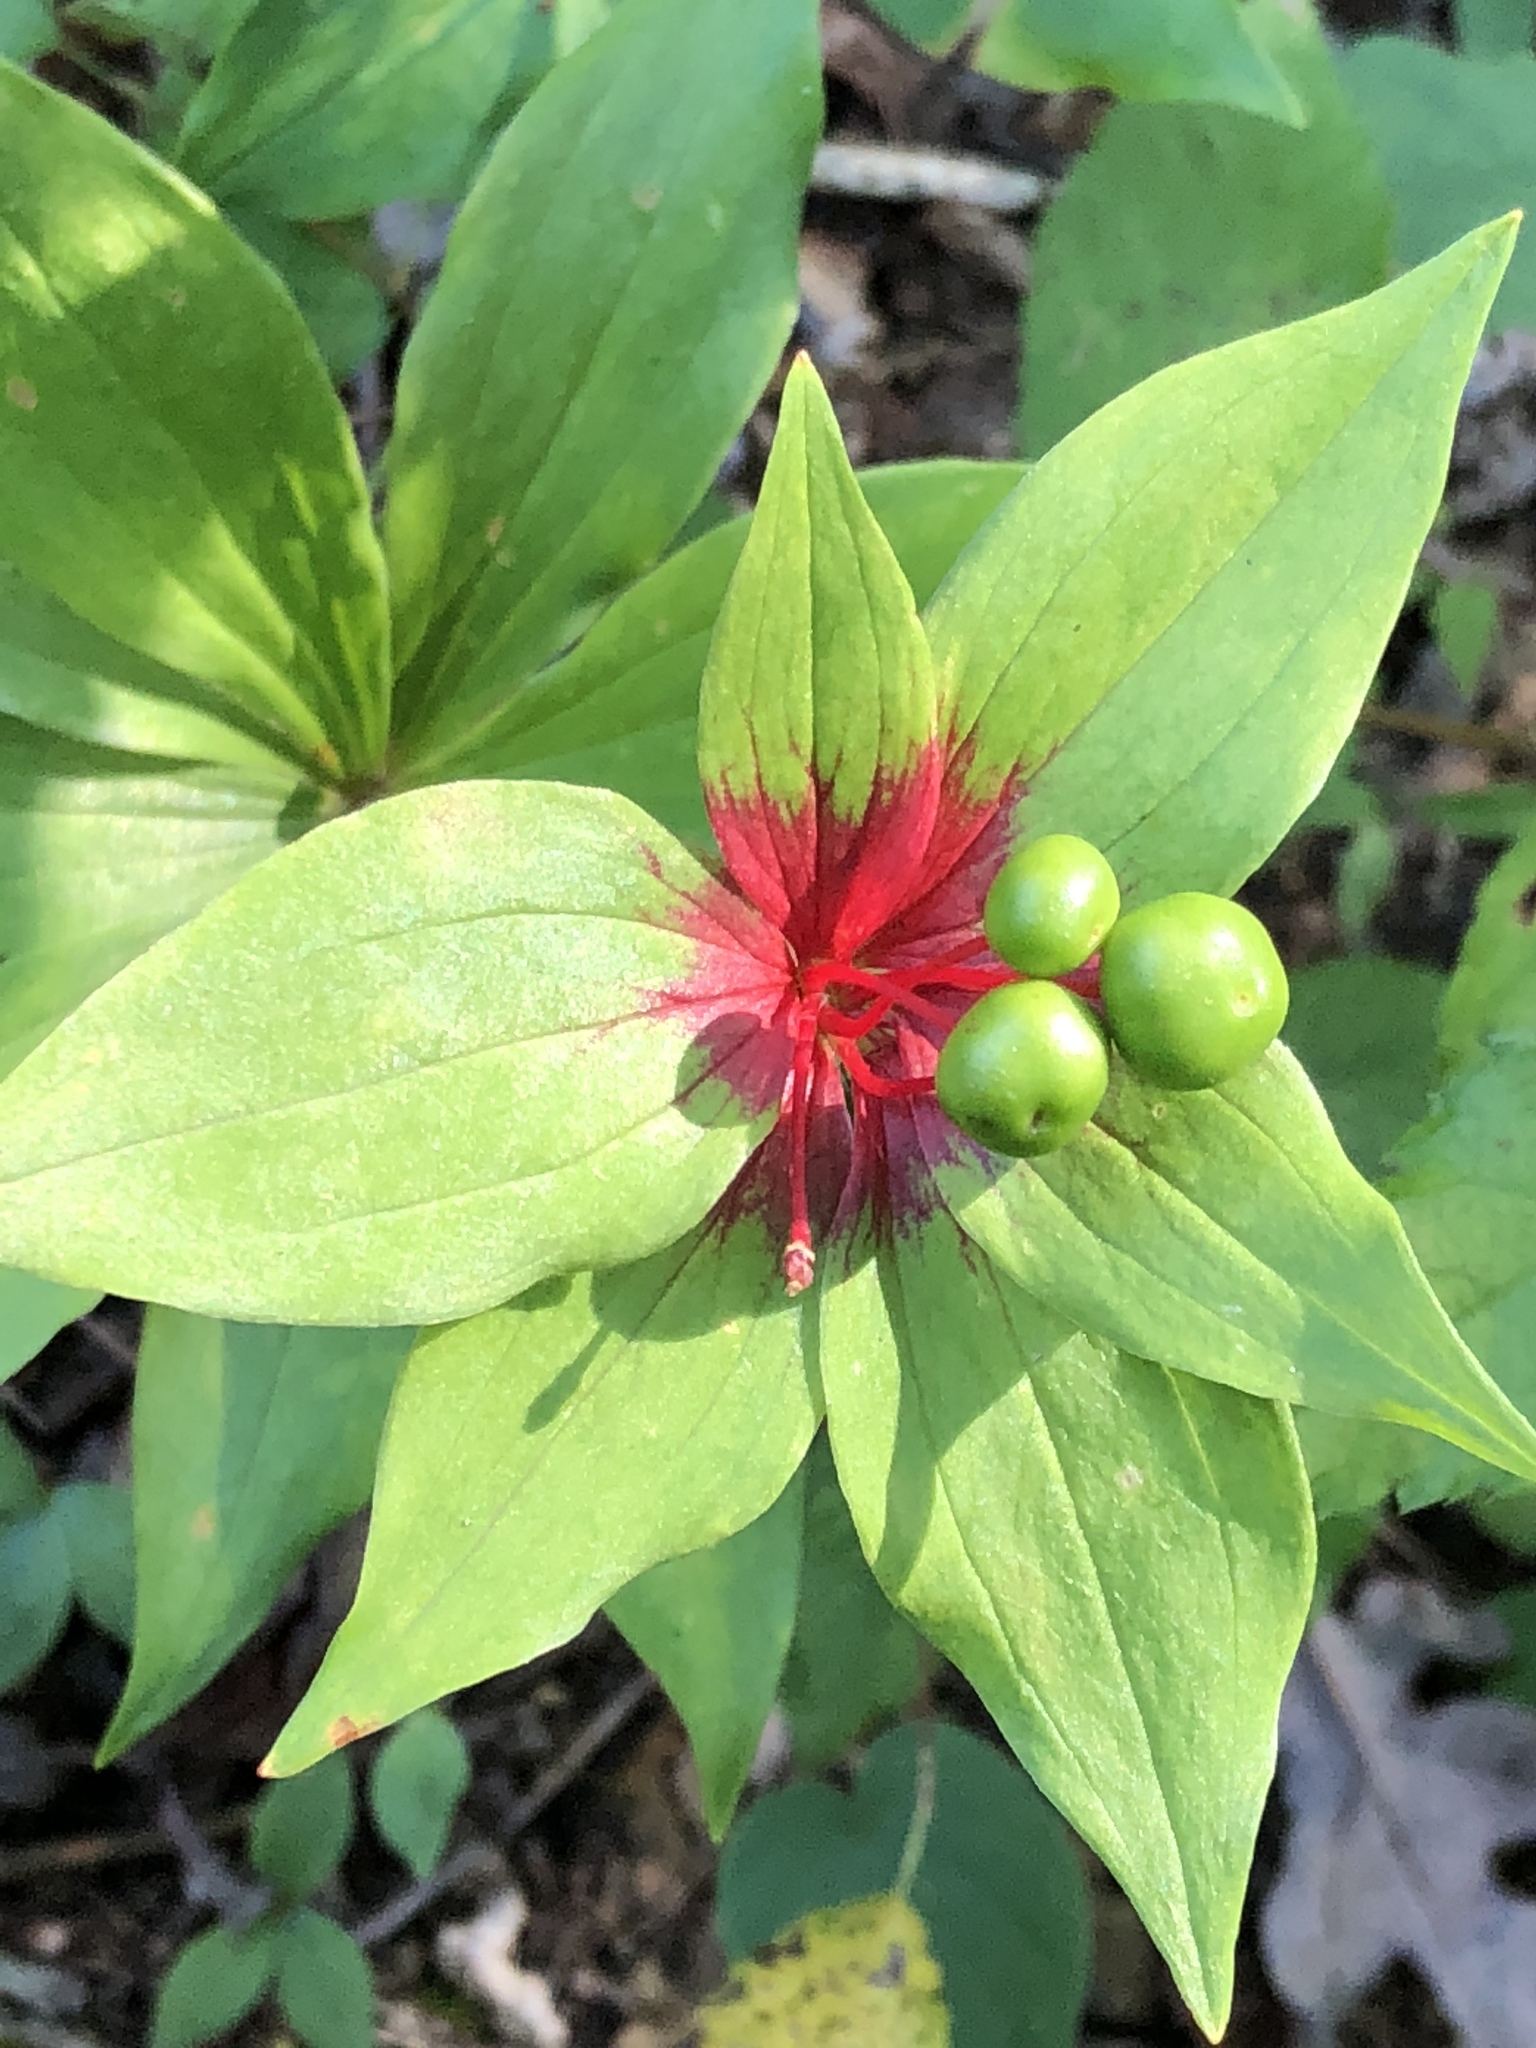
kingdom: Plantae
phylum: Tracheophyta
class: Liliopsida
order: Liliales
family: Liliaceae
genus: Medeola
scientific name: Medeola virginiana
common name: Indian cucumber-root
